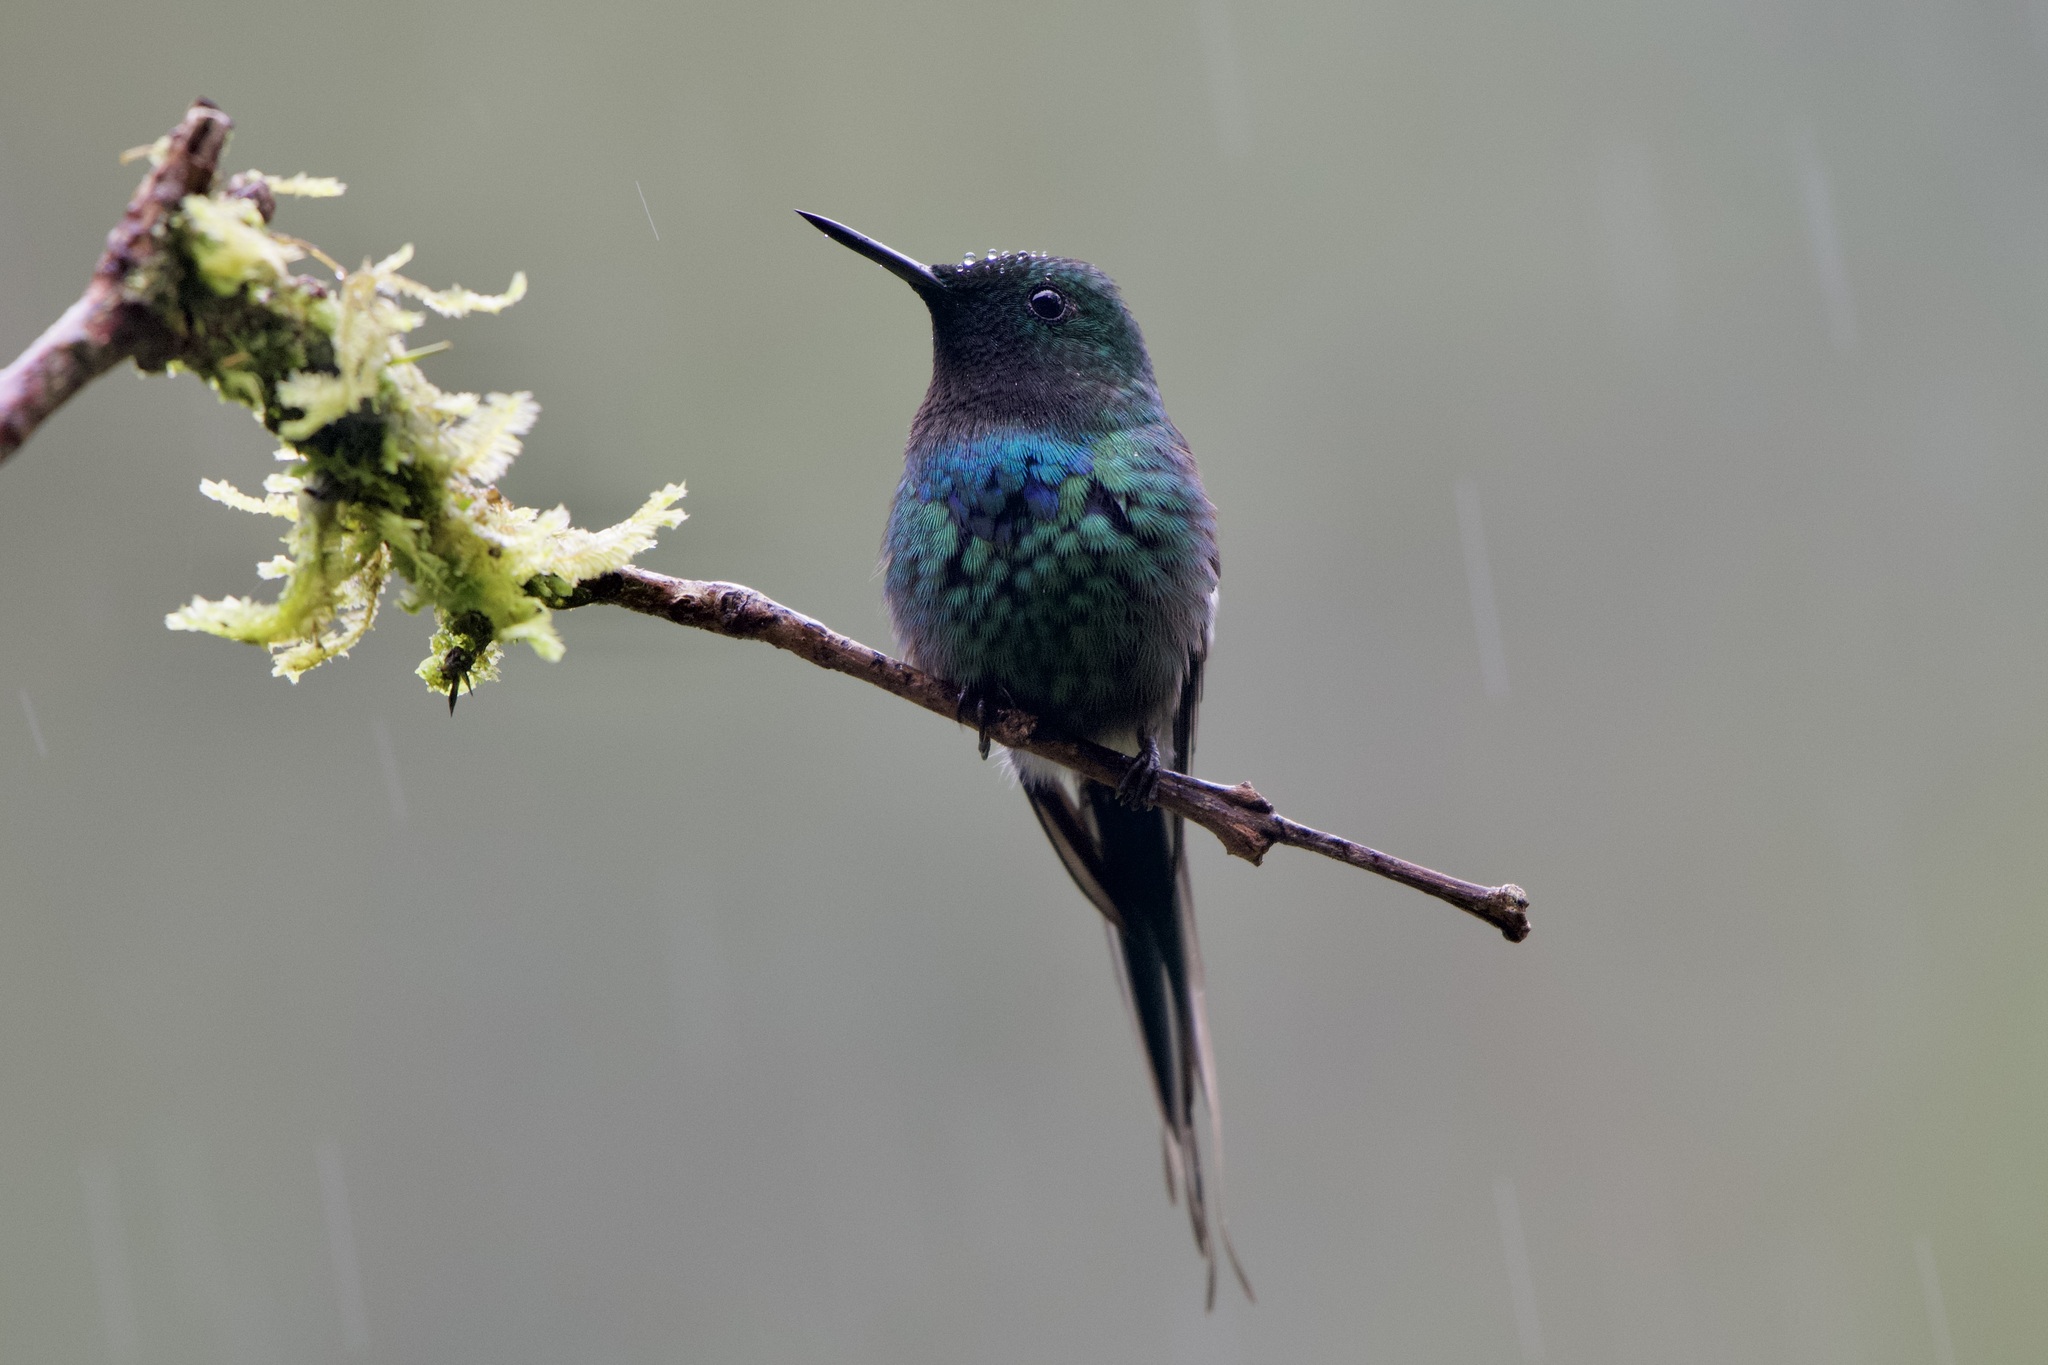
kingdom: Animalia
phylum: Chordata
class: Aves
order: Apodiformes
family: Trochilidae
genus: Discosura
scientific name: Discosura conversii
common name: Green thorntail
